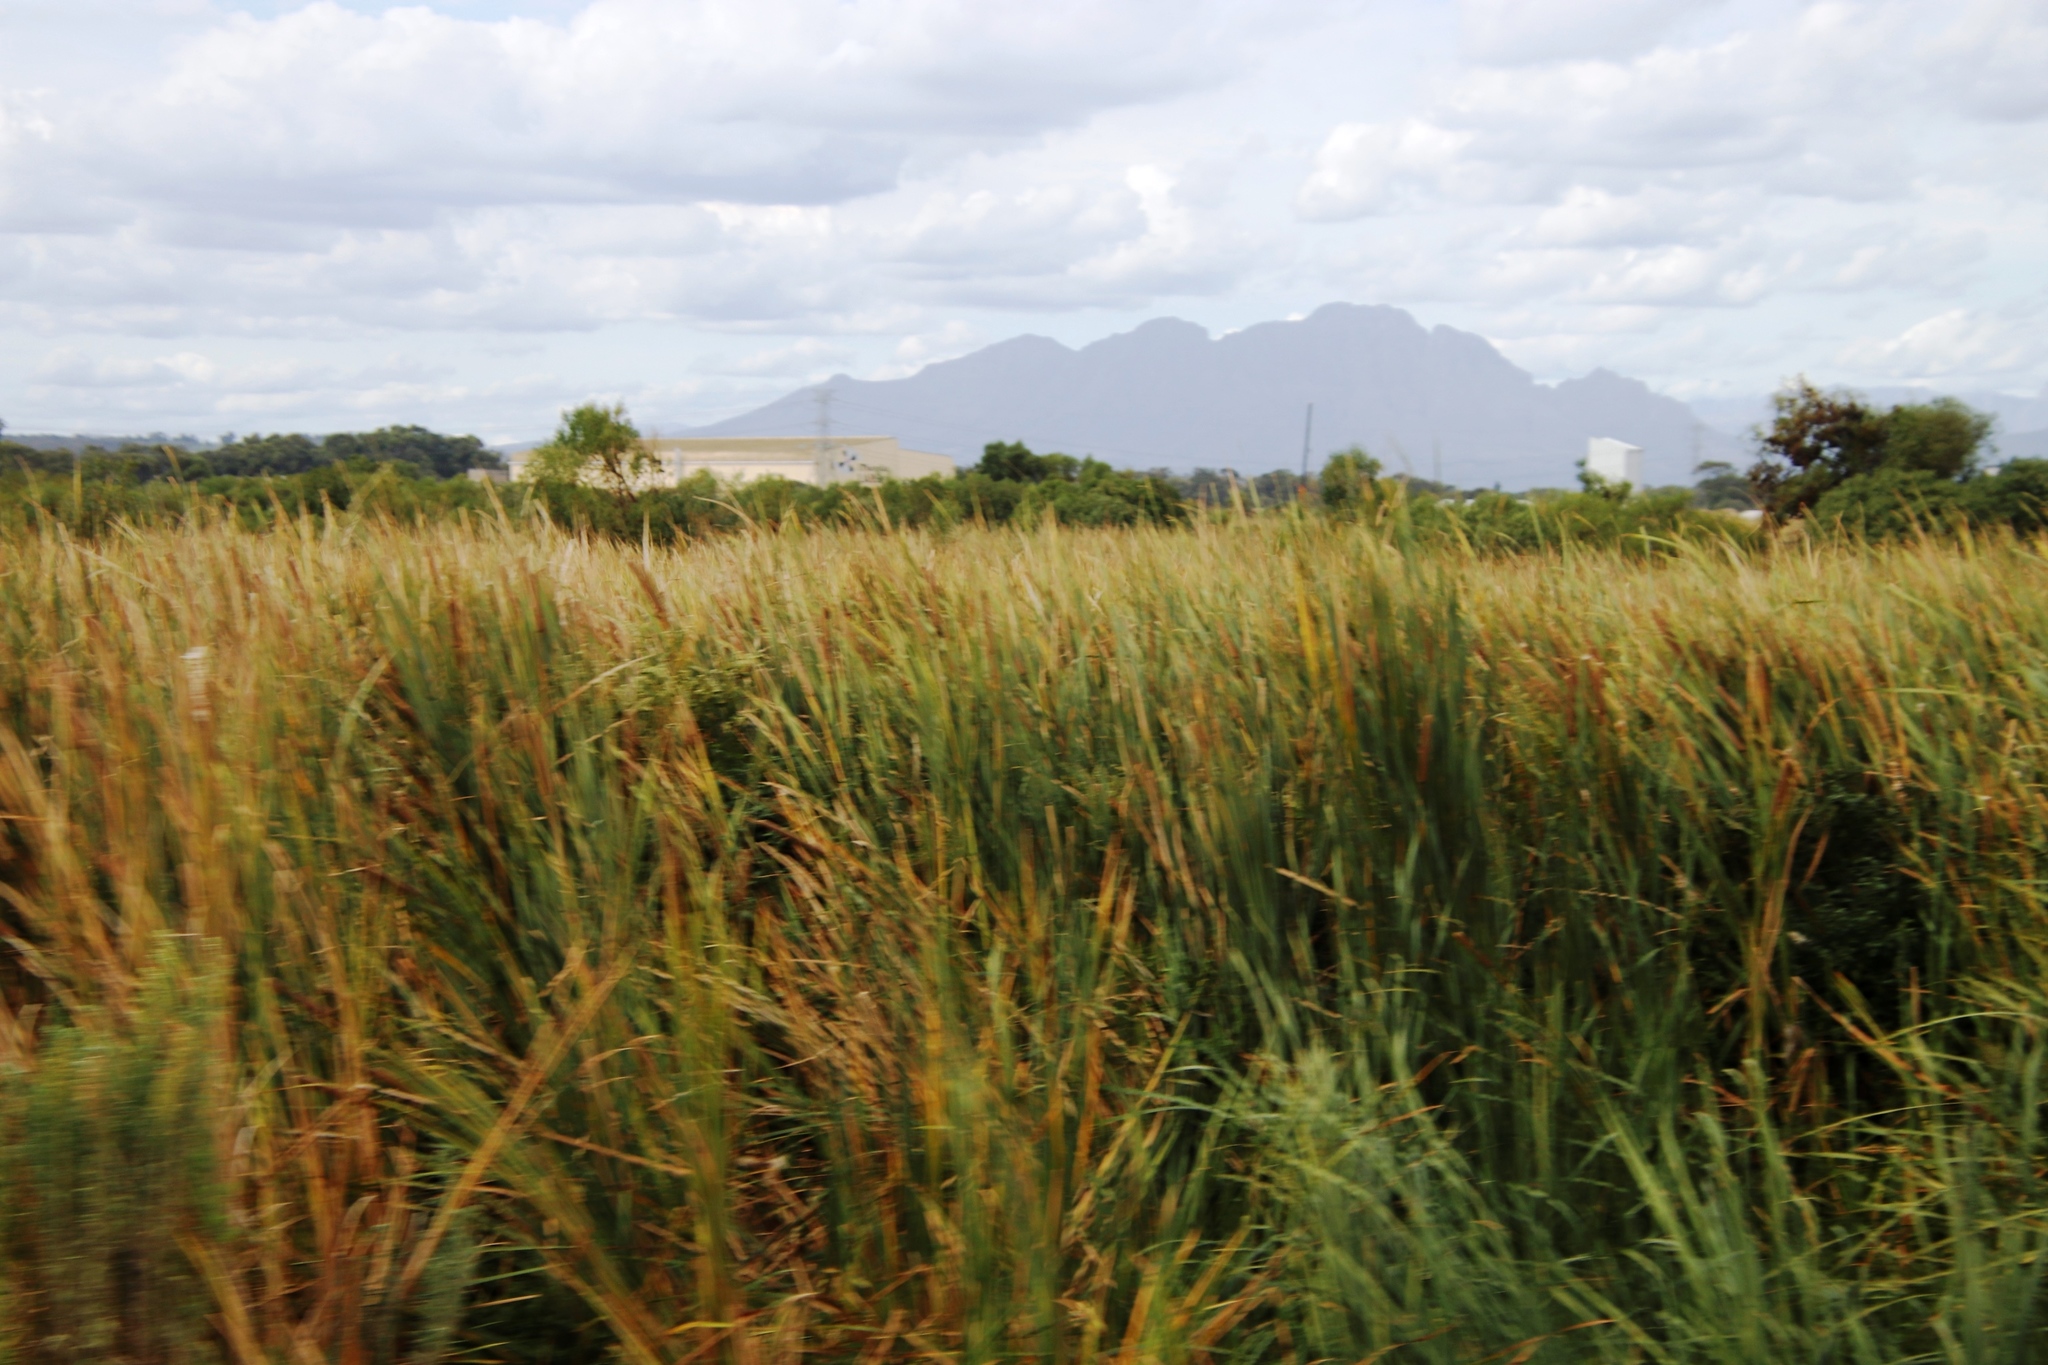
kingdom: Plantae
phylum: Tracheophyta
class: Liliopsida
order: Poales
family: Typhaceae
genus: Typha
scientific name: Typha capensis
